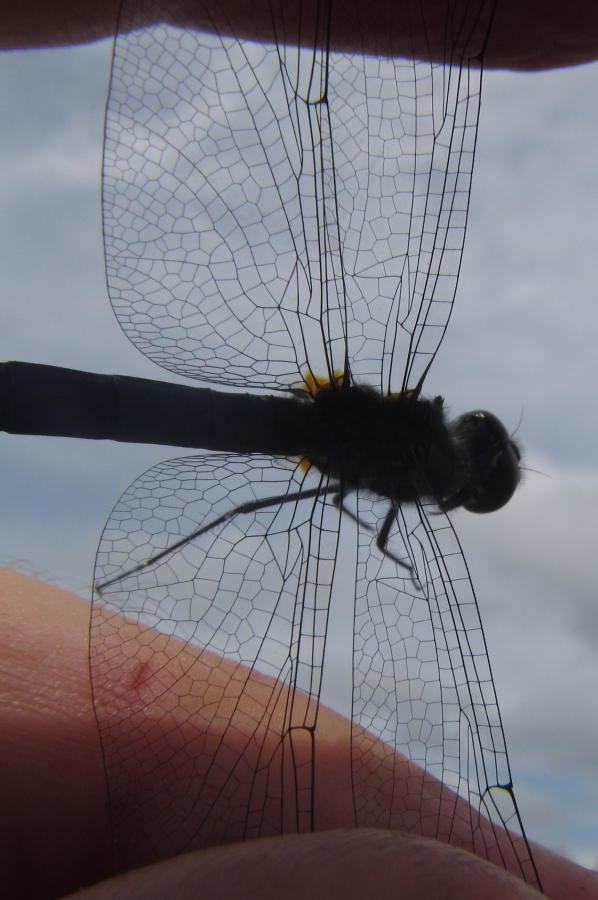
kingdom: Animalia
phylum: Arthropoda
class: Insecta
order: Odonata
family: Libellulidae
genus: Trithemis
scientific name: Trithemis dorsalis
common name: Highland dropwing
